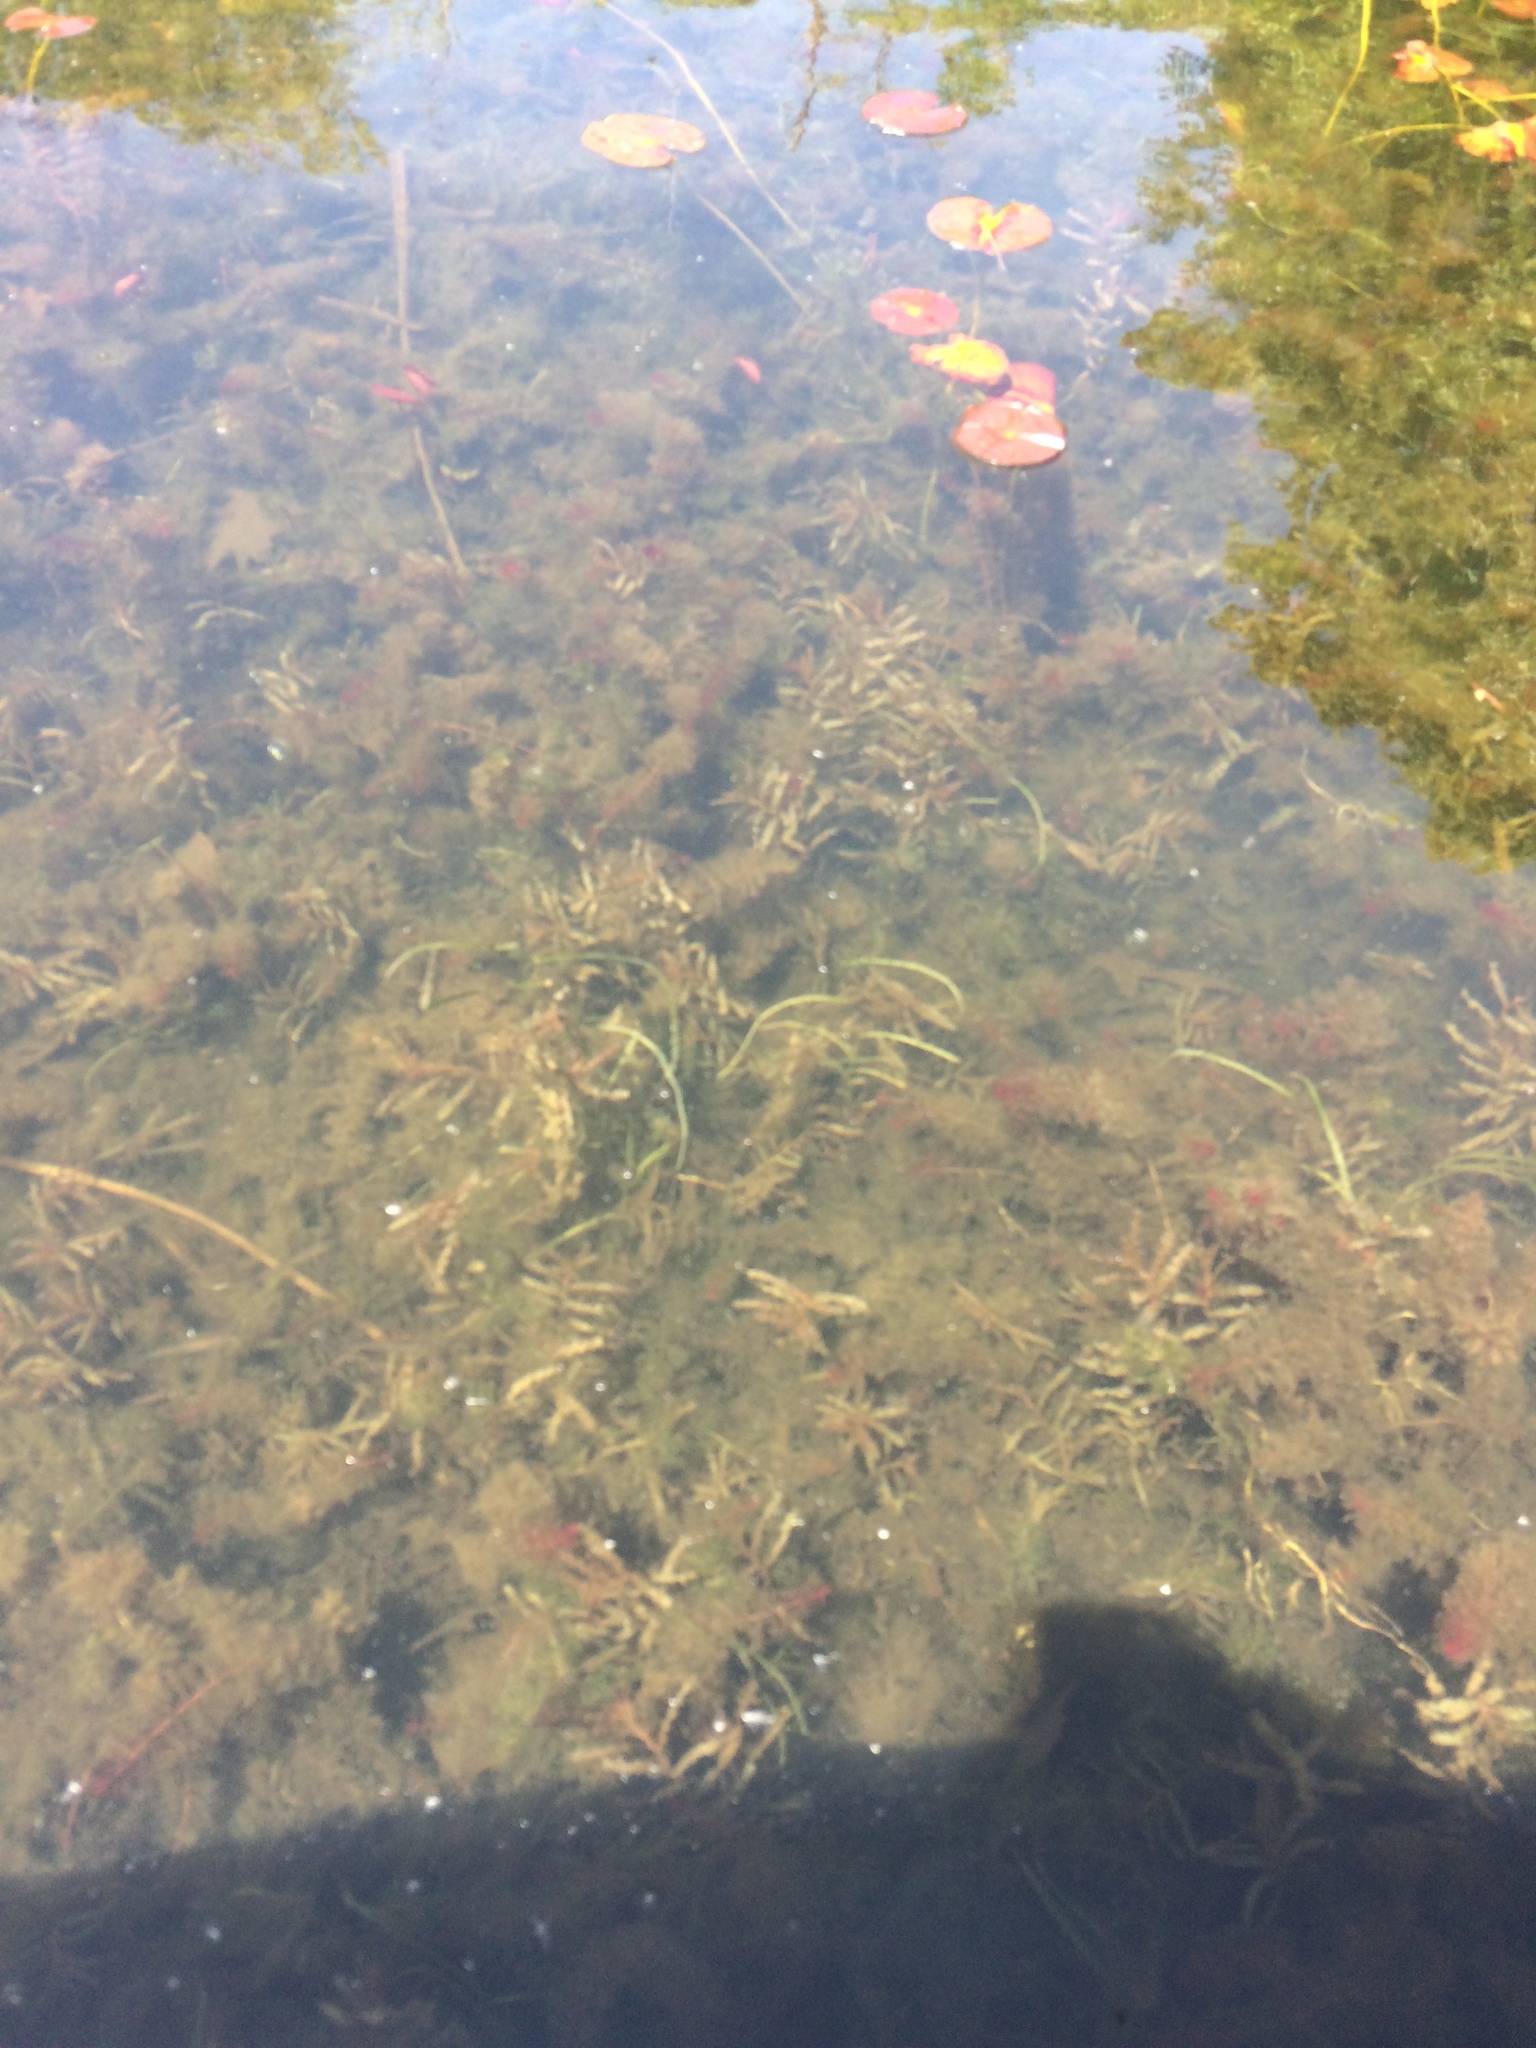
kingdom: Plantae
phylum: Tracheophyta
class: Liliopsida
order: Alismatales
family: Potamogetonaceae
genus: Potamogeton
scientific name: Potamogeton crispus
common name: Curled pondweed
